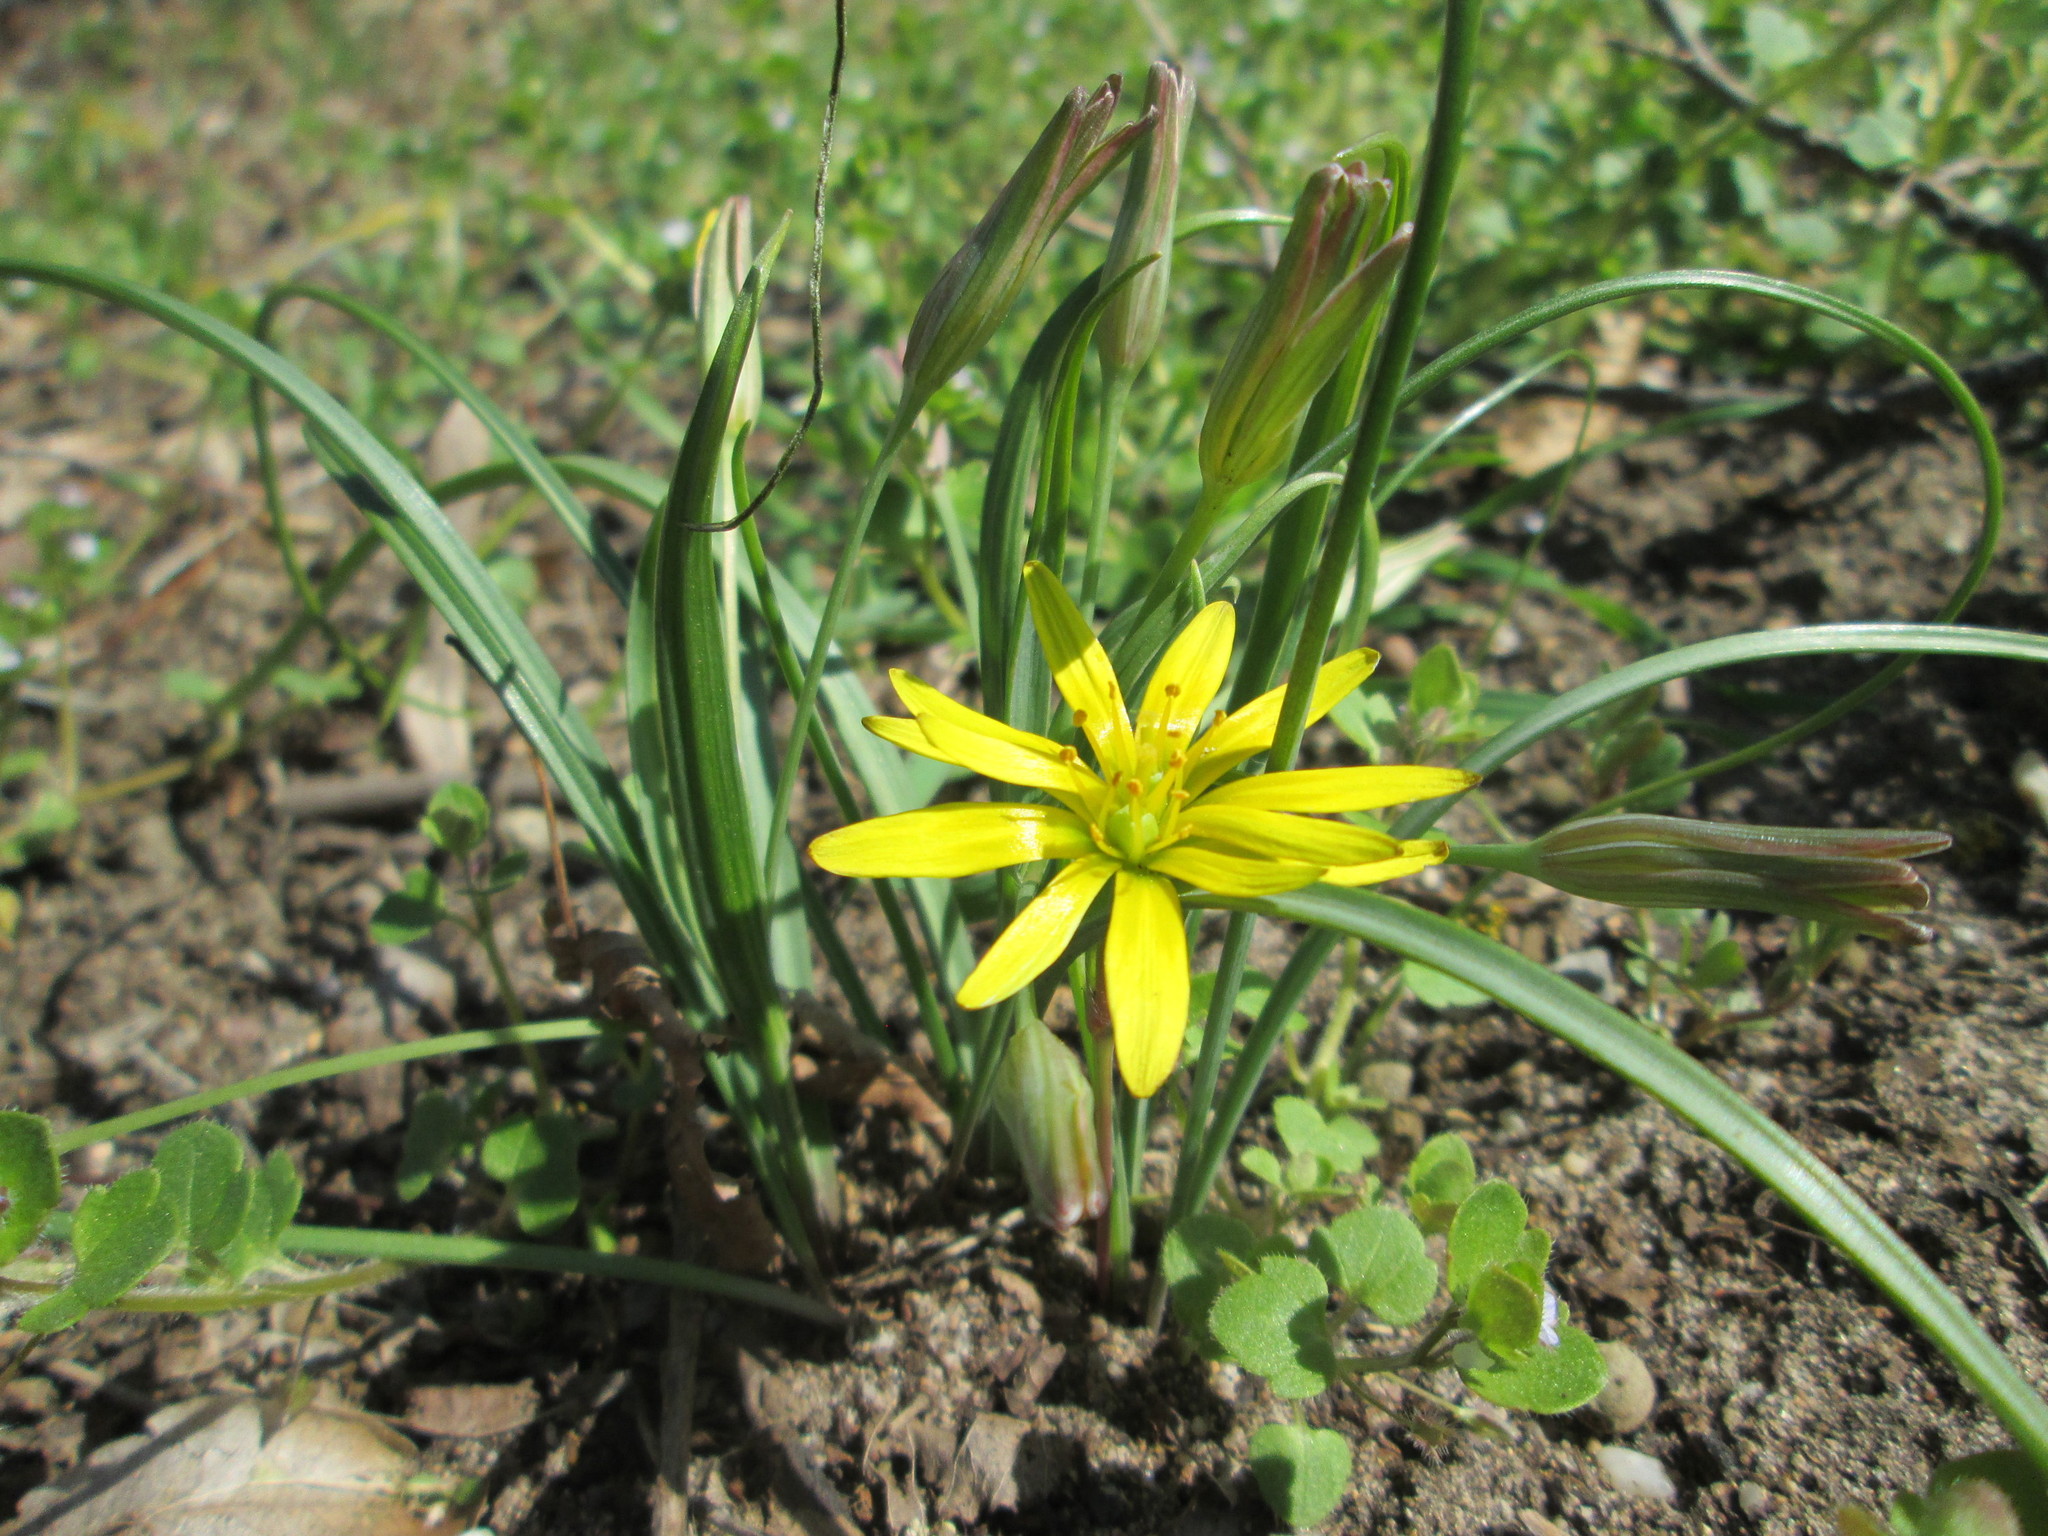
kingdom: Plantae
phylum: Tracheophyta
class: Liliopsida
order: Liliales
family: Liliaceae
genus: Gagea
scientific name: Gagea pratensis
